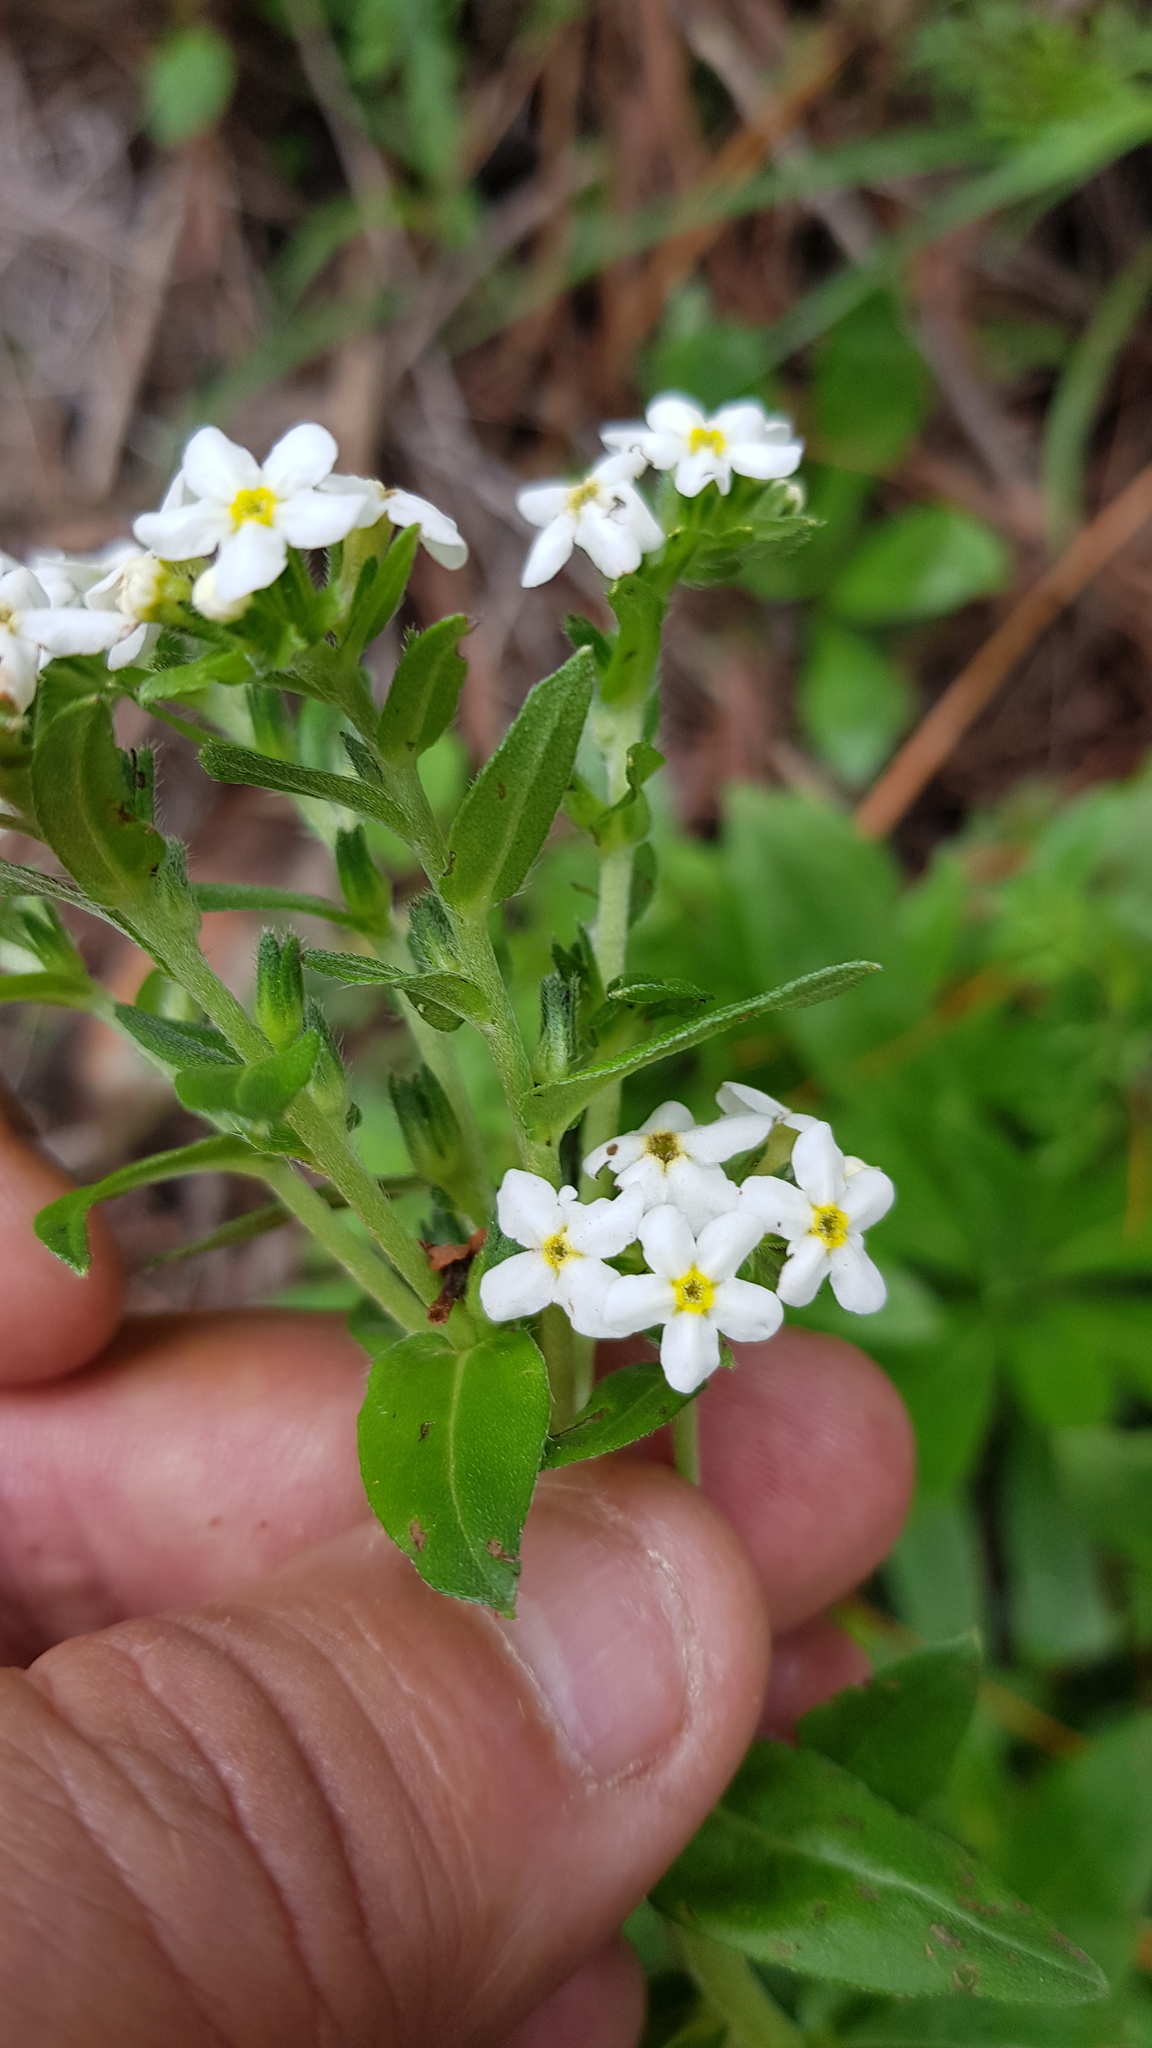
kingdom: Plantae
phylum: Tracheophyta
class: Magnoliopsida
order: Boraginales
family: Boraginaceae
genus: Lithospermum
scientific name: Lithospermum distichum
